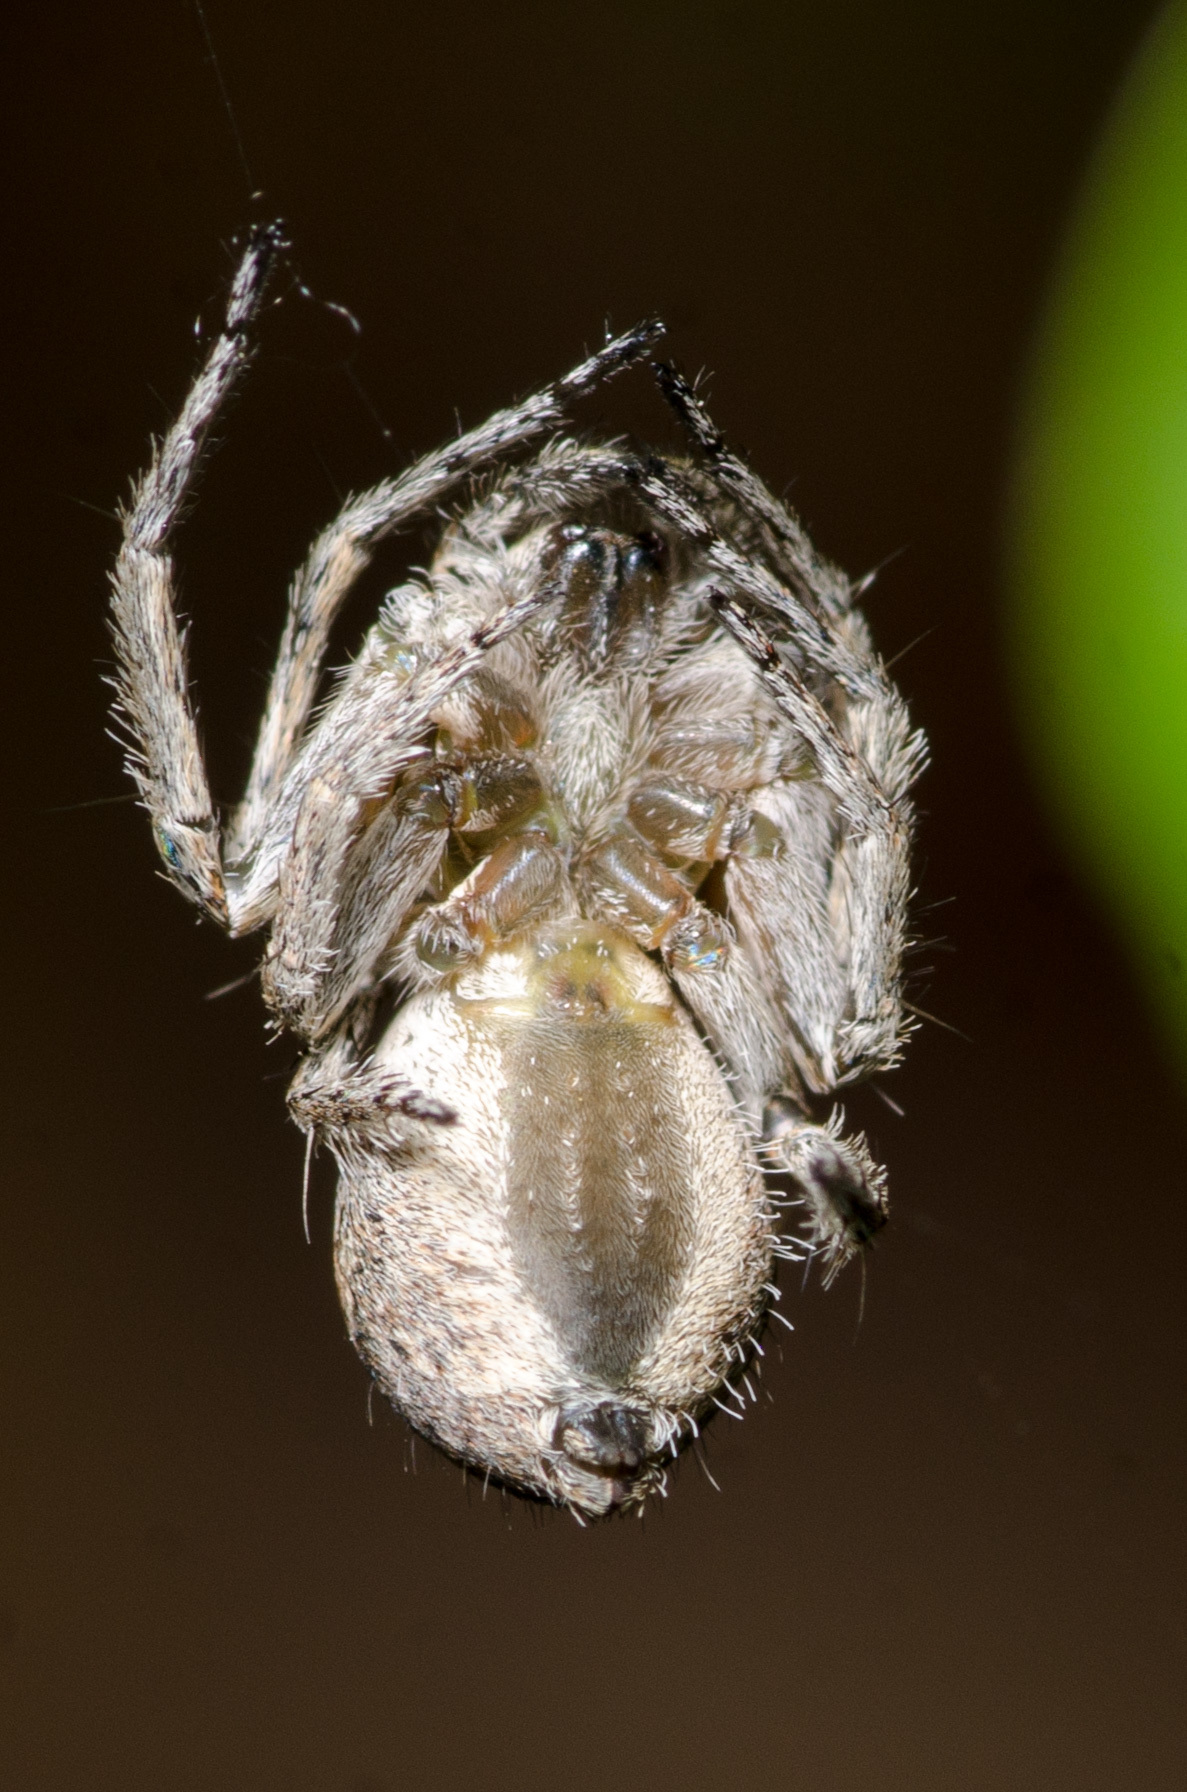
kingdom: Animalia
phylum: Arthropoda
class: Arachnida
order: Araneae
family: Oxyopidae
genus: Hamataliwa
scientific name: Hamataliwa grisea
